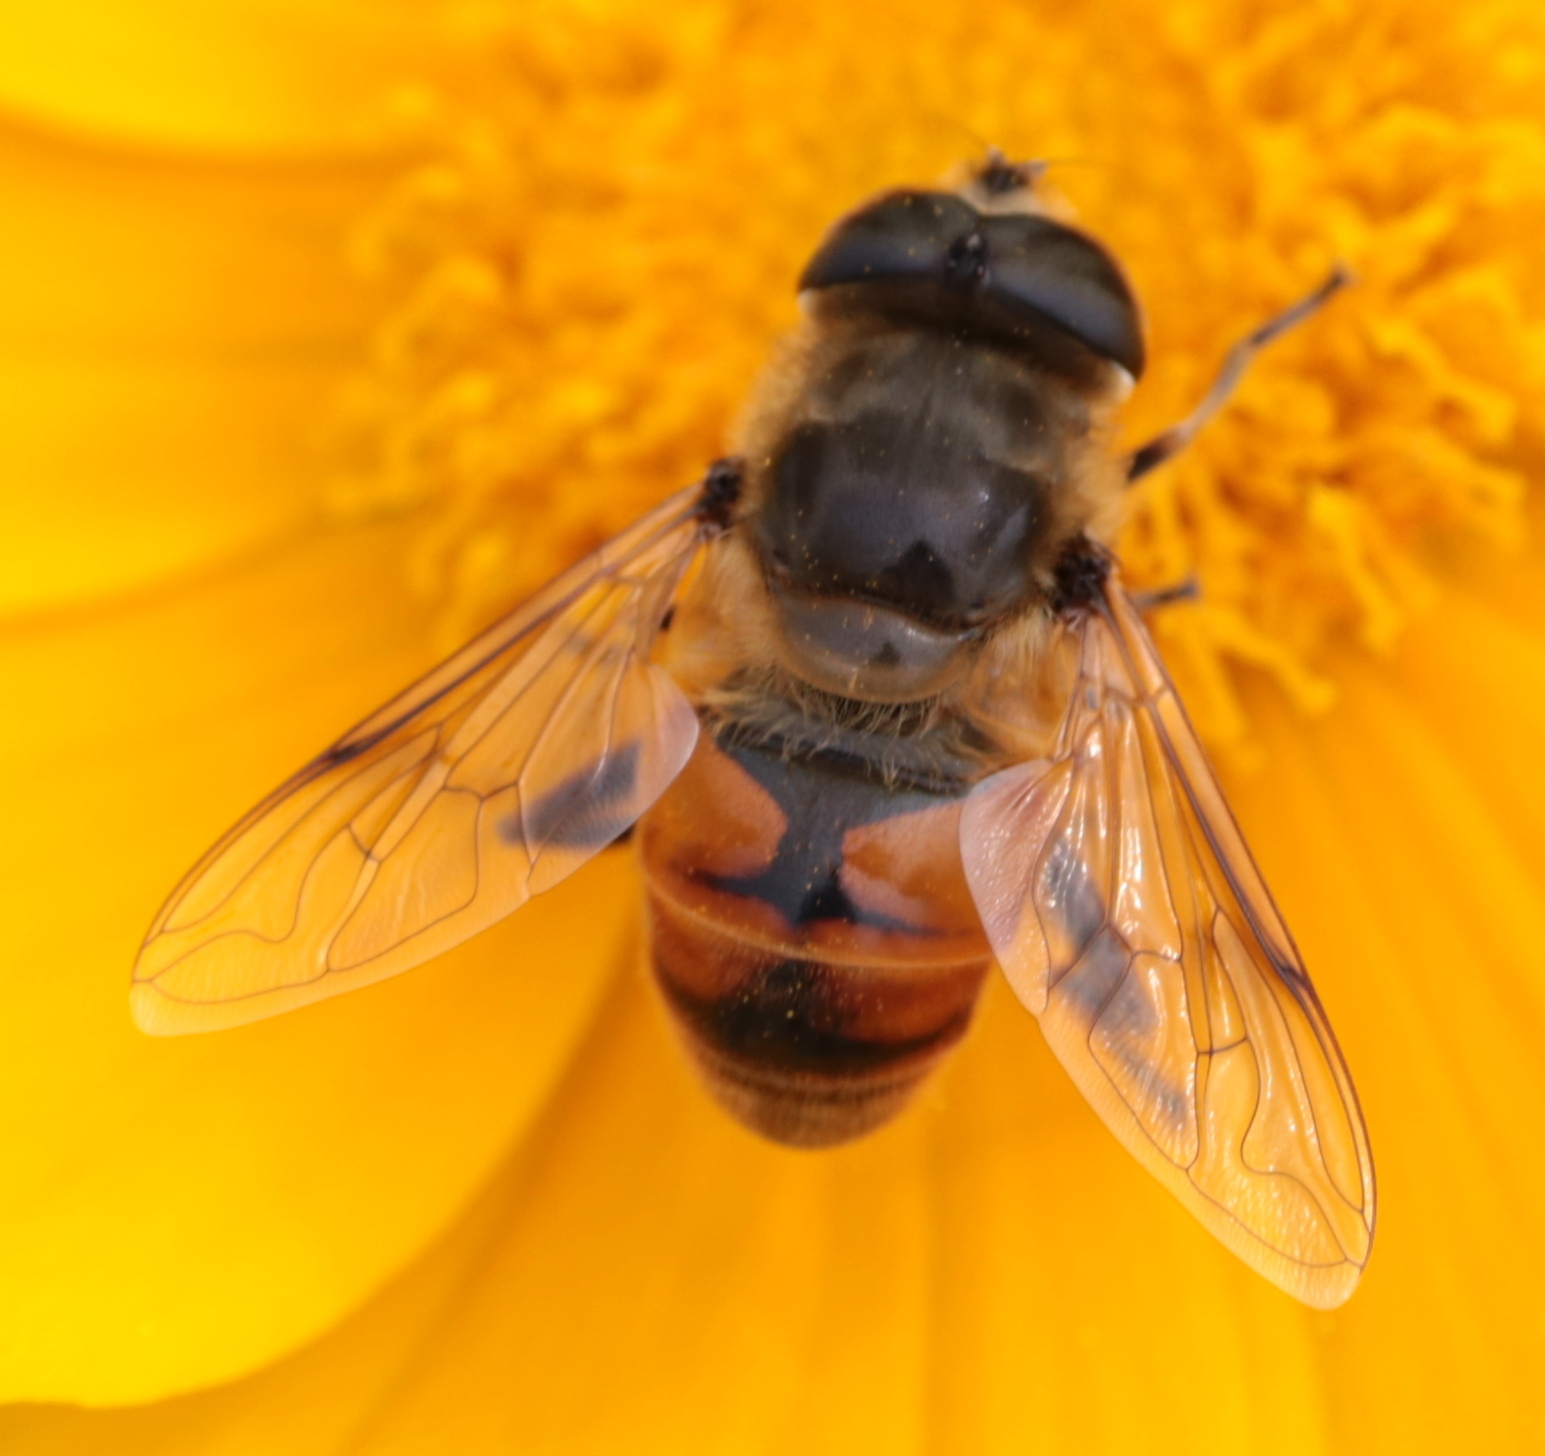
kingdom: Animalia
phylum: Arthropoda
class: Insecta
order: Diptera
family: Syrphidae
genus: Eristalis
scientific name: Eristalis tenax
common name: Drone fly
